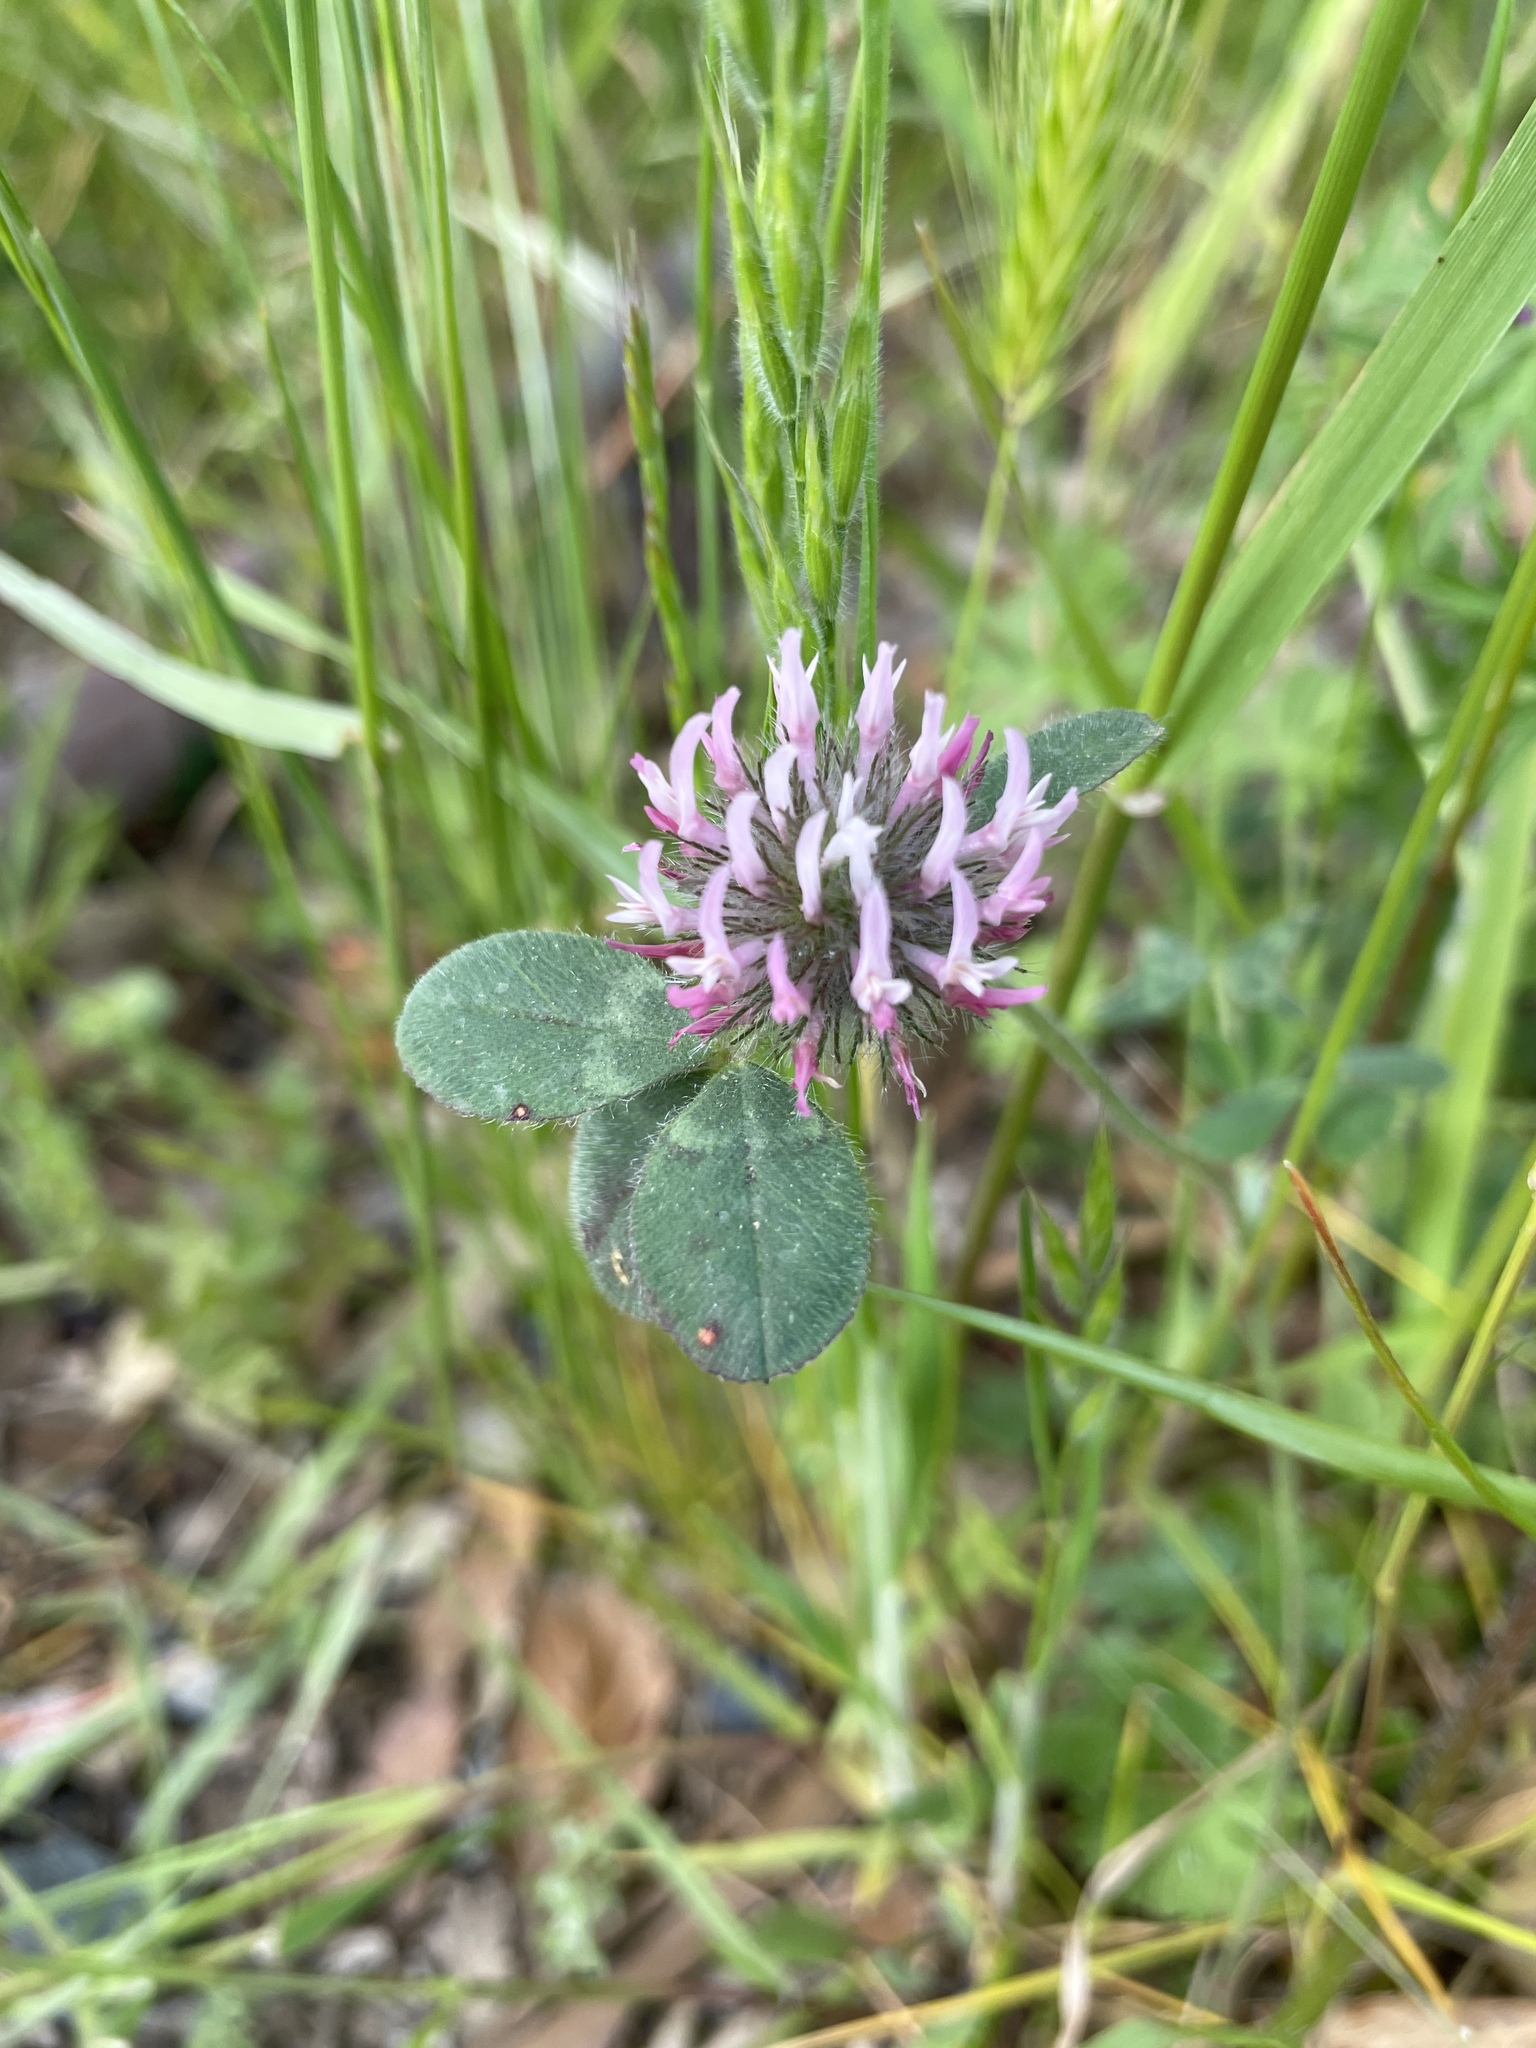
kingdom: Plantae
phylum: Tracheophyta
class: Magnoliopsida
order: Fabales
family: Fabaceae
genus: Trifolium
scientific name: Trifolium hirtum
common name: Rose clover
